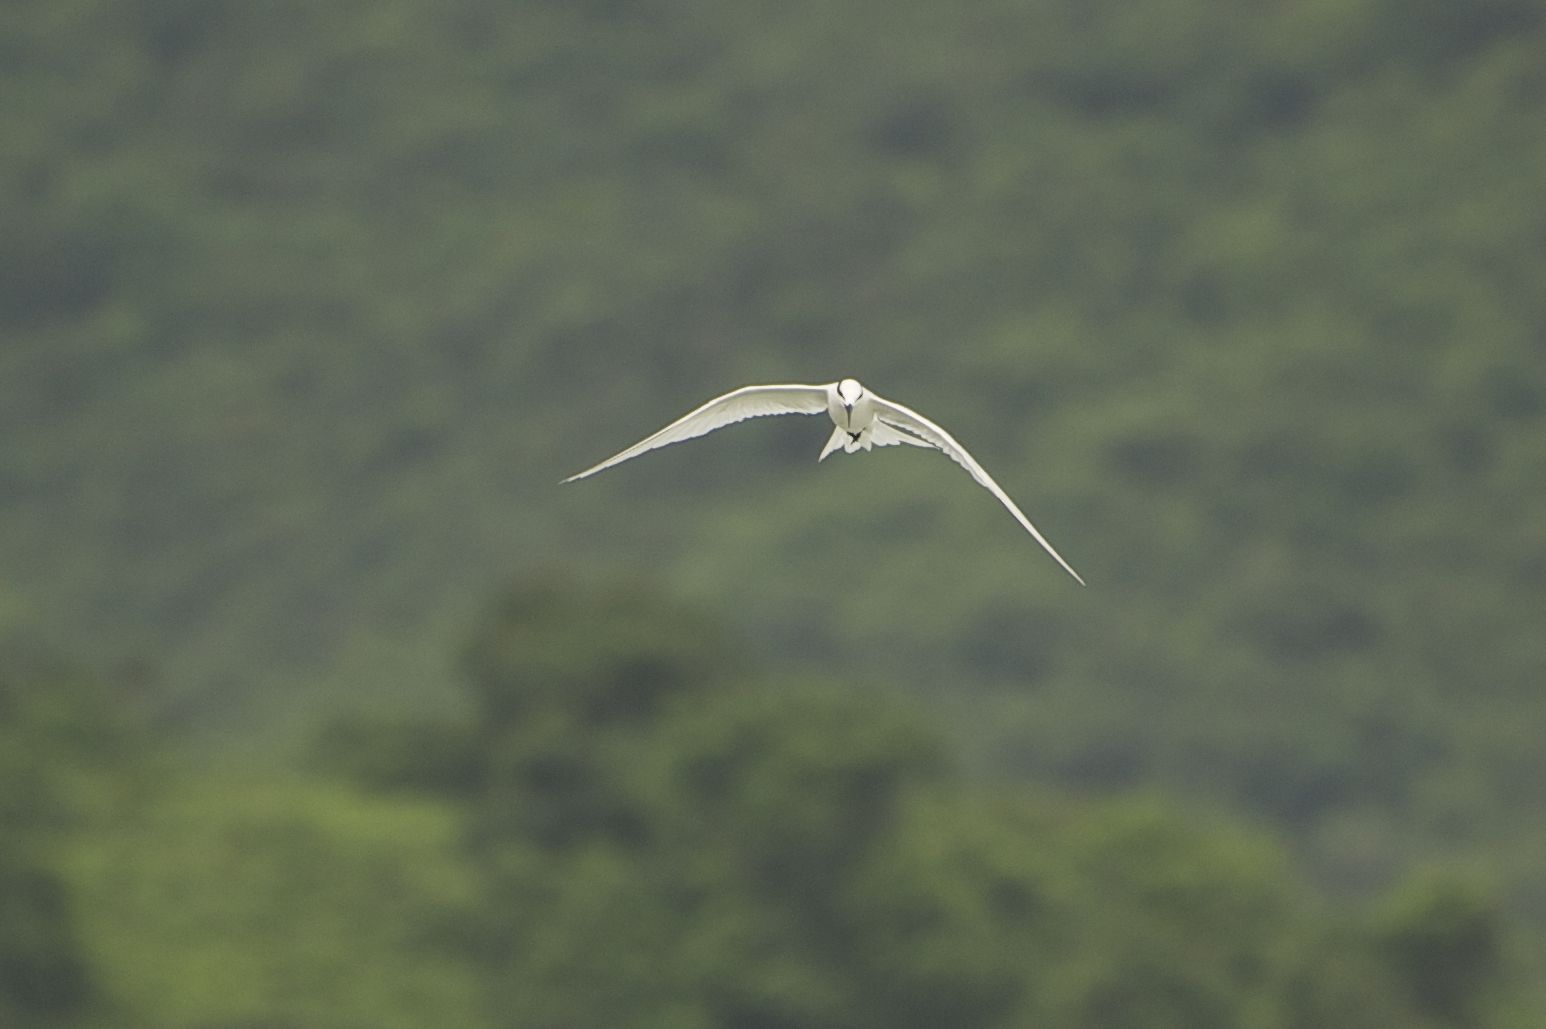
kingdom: Animalia
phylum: Chordata
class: Aves
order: Charadriiformes
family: Laridae
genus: Sterna
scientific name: Sterna sumatrana
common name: Black-naped tern
